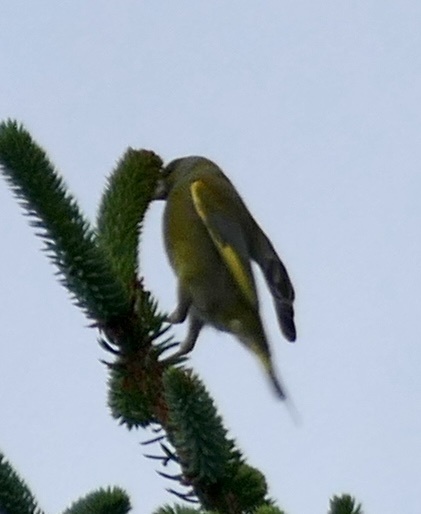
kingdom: Plantae
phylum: Tracheophyta
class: Liliopsida
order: Poales
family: Poaceae
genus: Chloris
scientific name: Chloris chloris
